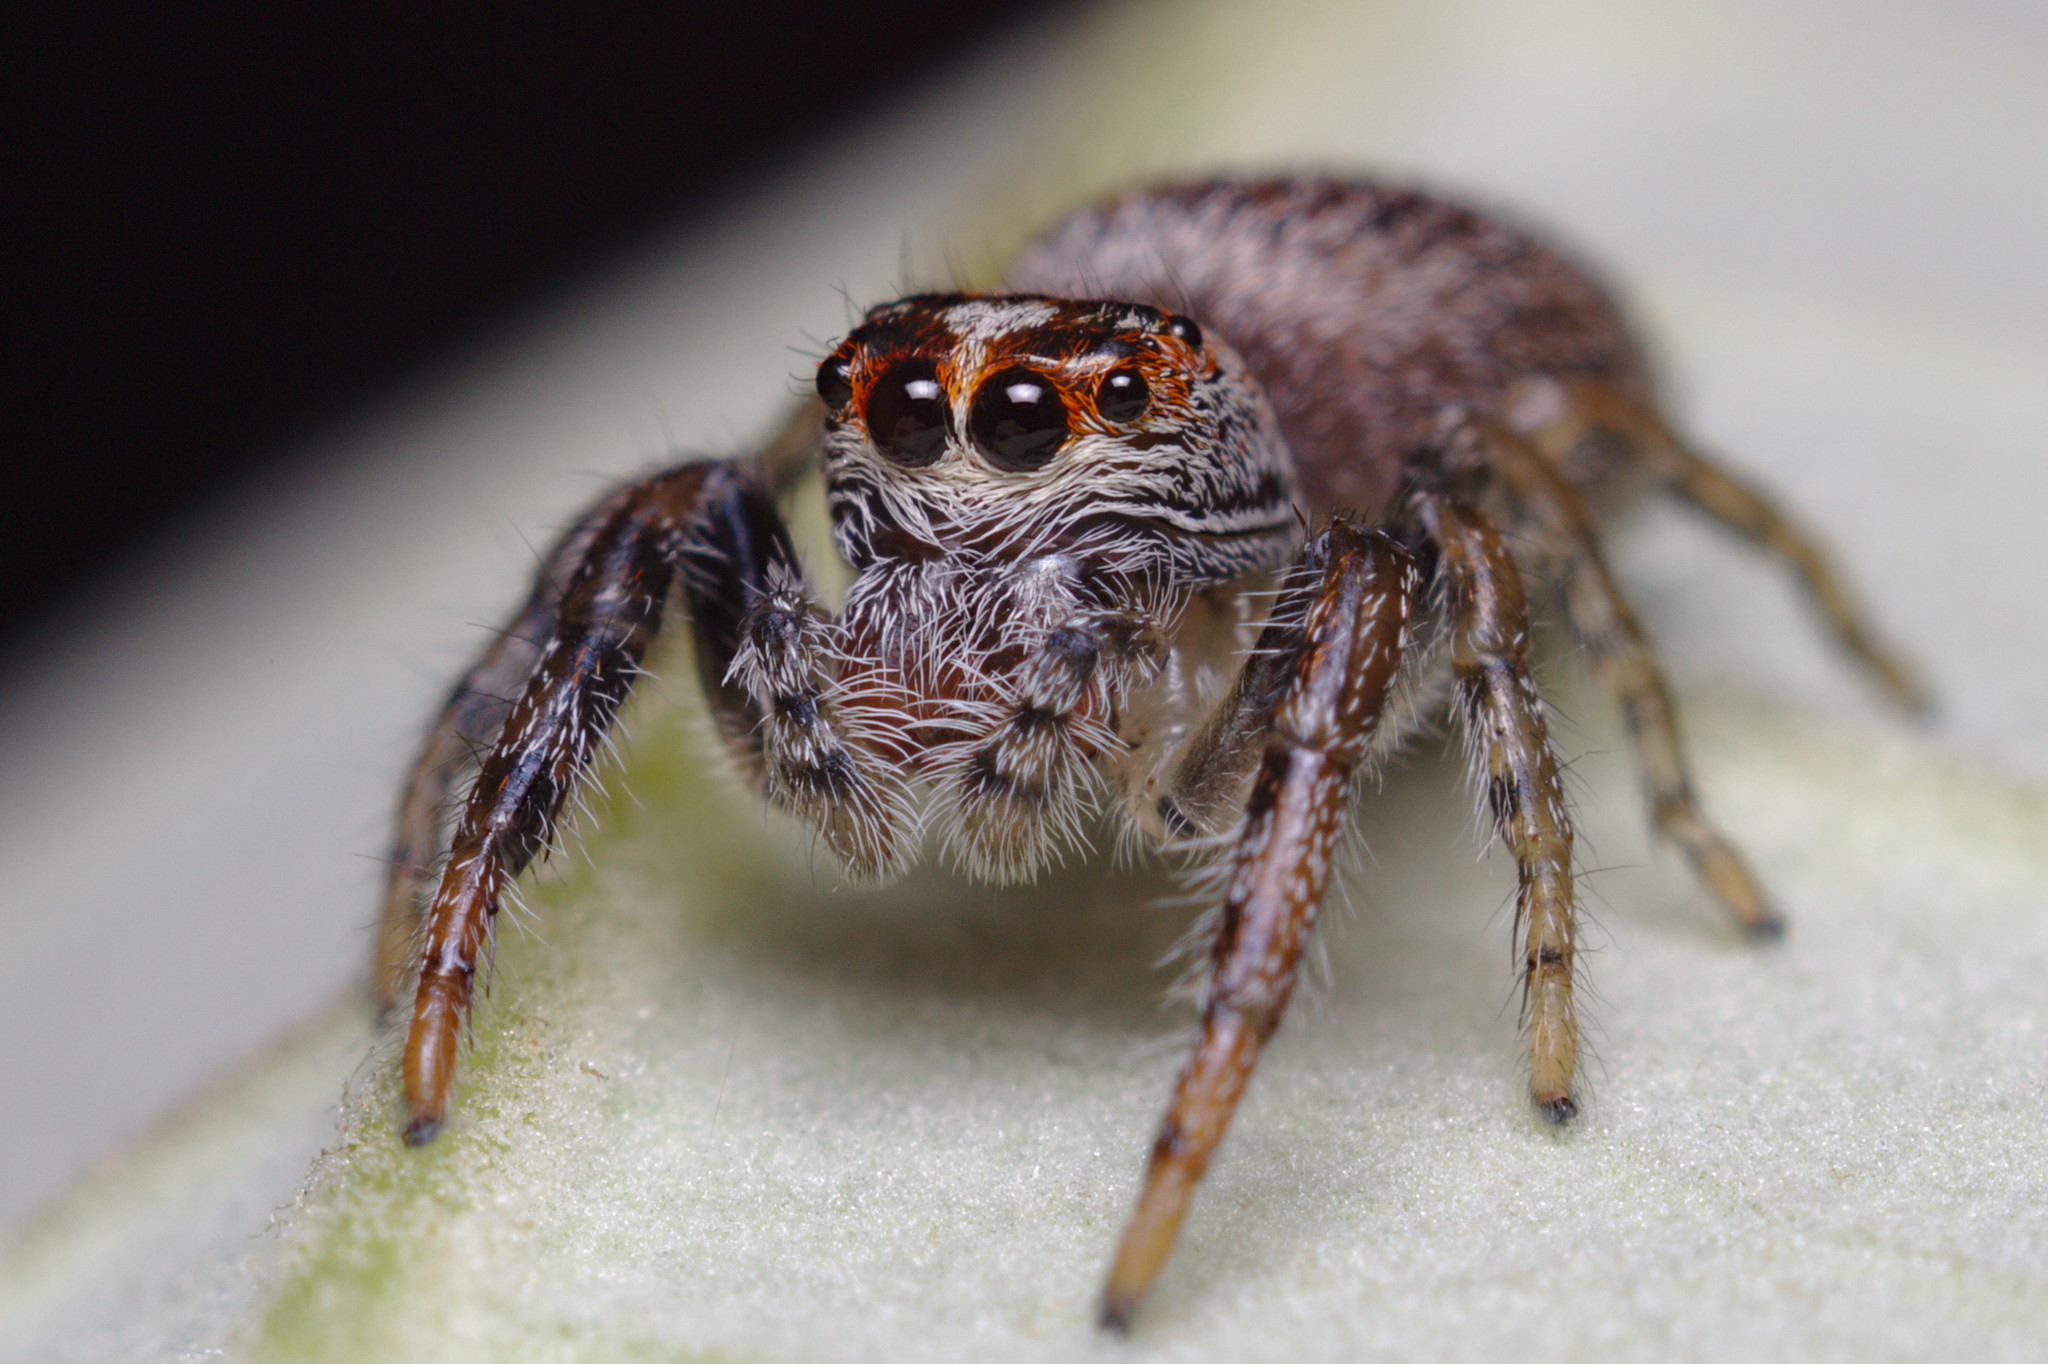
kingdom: Animalia
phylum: Arthropoda
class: Arachnida
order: Araneae
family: Salticidae
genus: Opisthoncus
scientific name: Opisthoncus polyphemus
